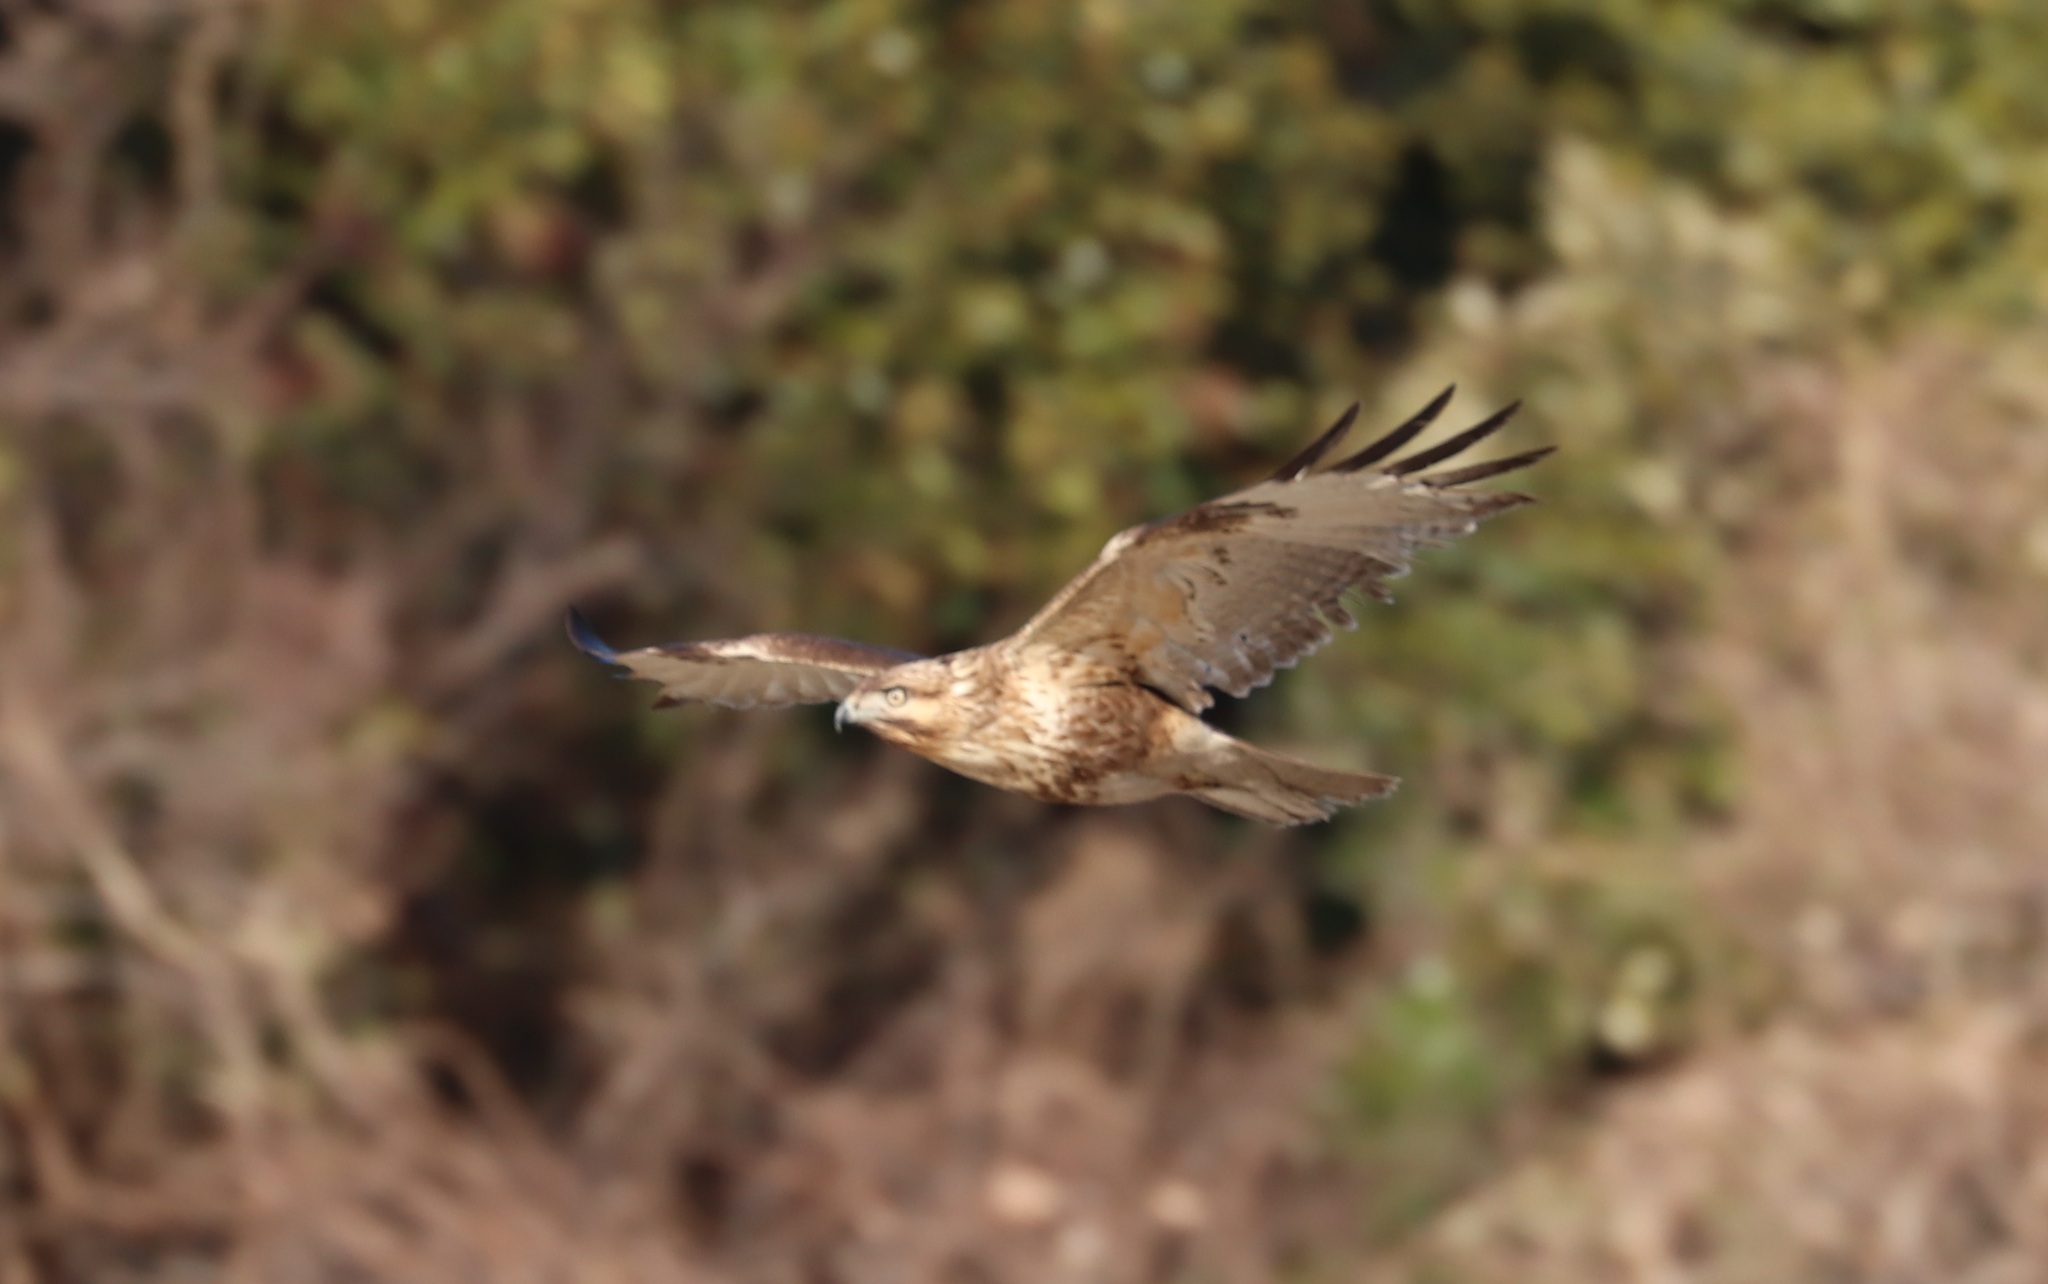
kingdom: Animalia
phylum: Chordata
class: Aves
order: Accipitriformes
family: Accipitridae
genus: Buteo
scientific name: Buteo japonicus
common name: Eastern buzzard
